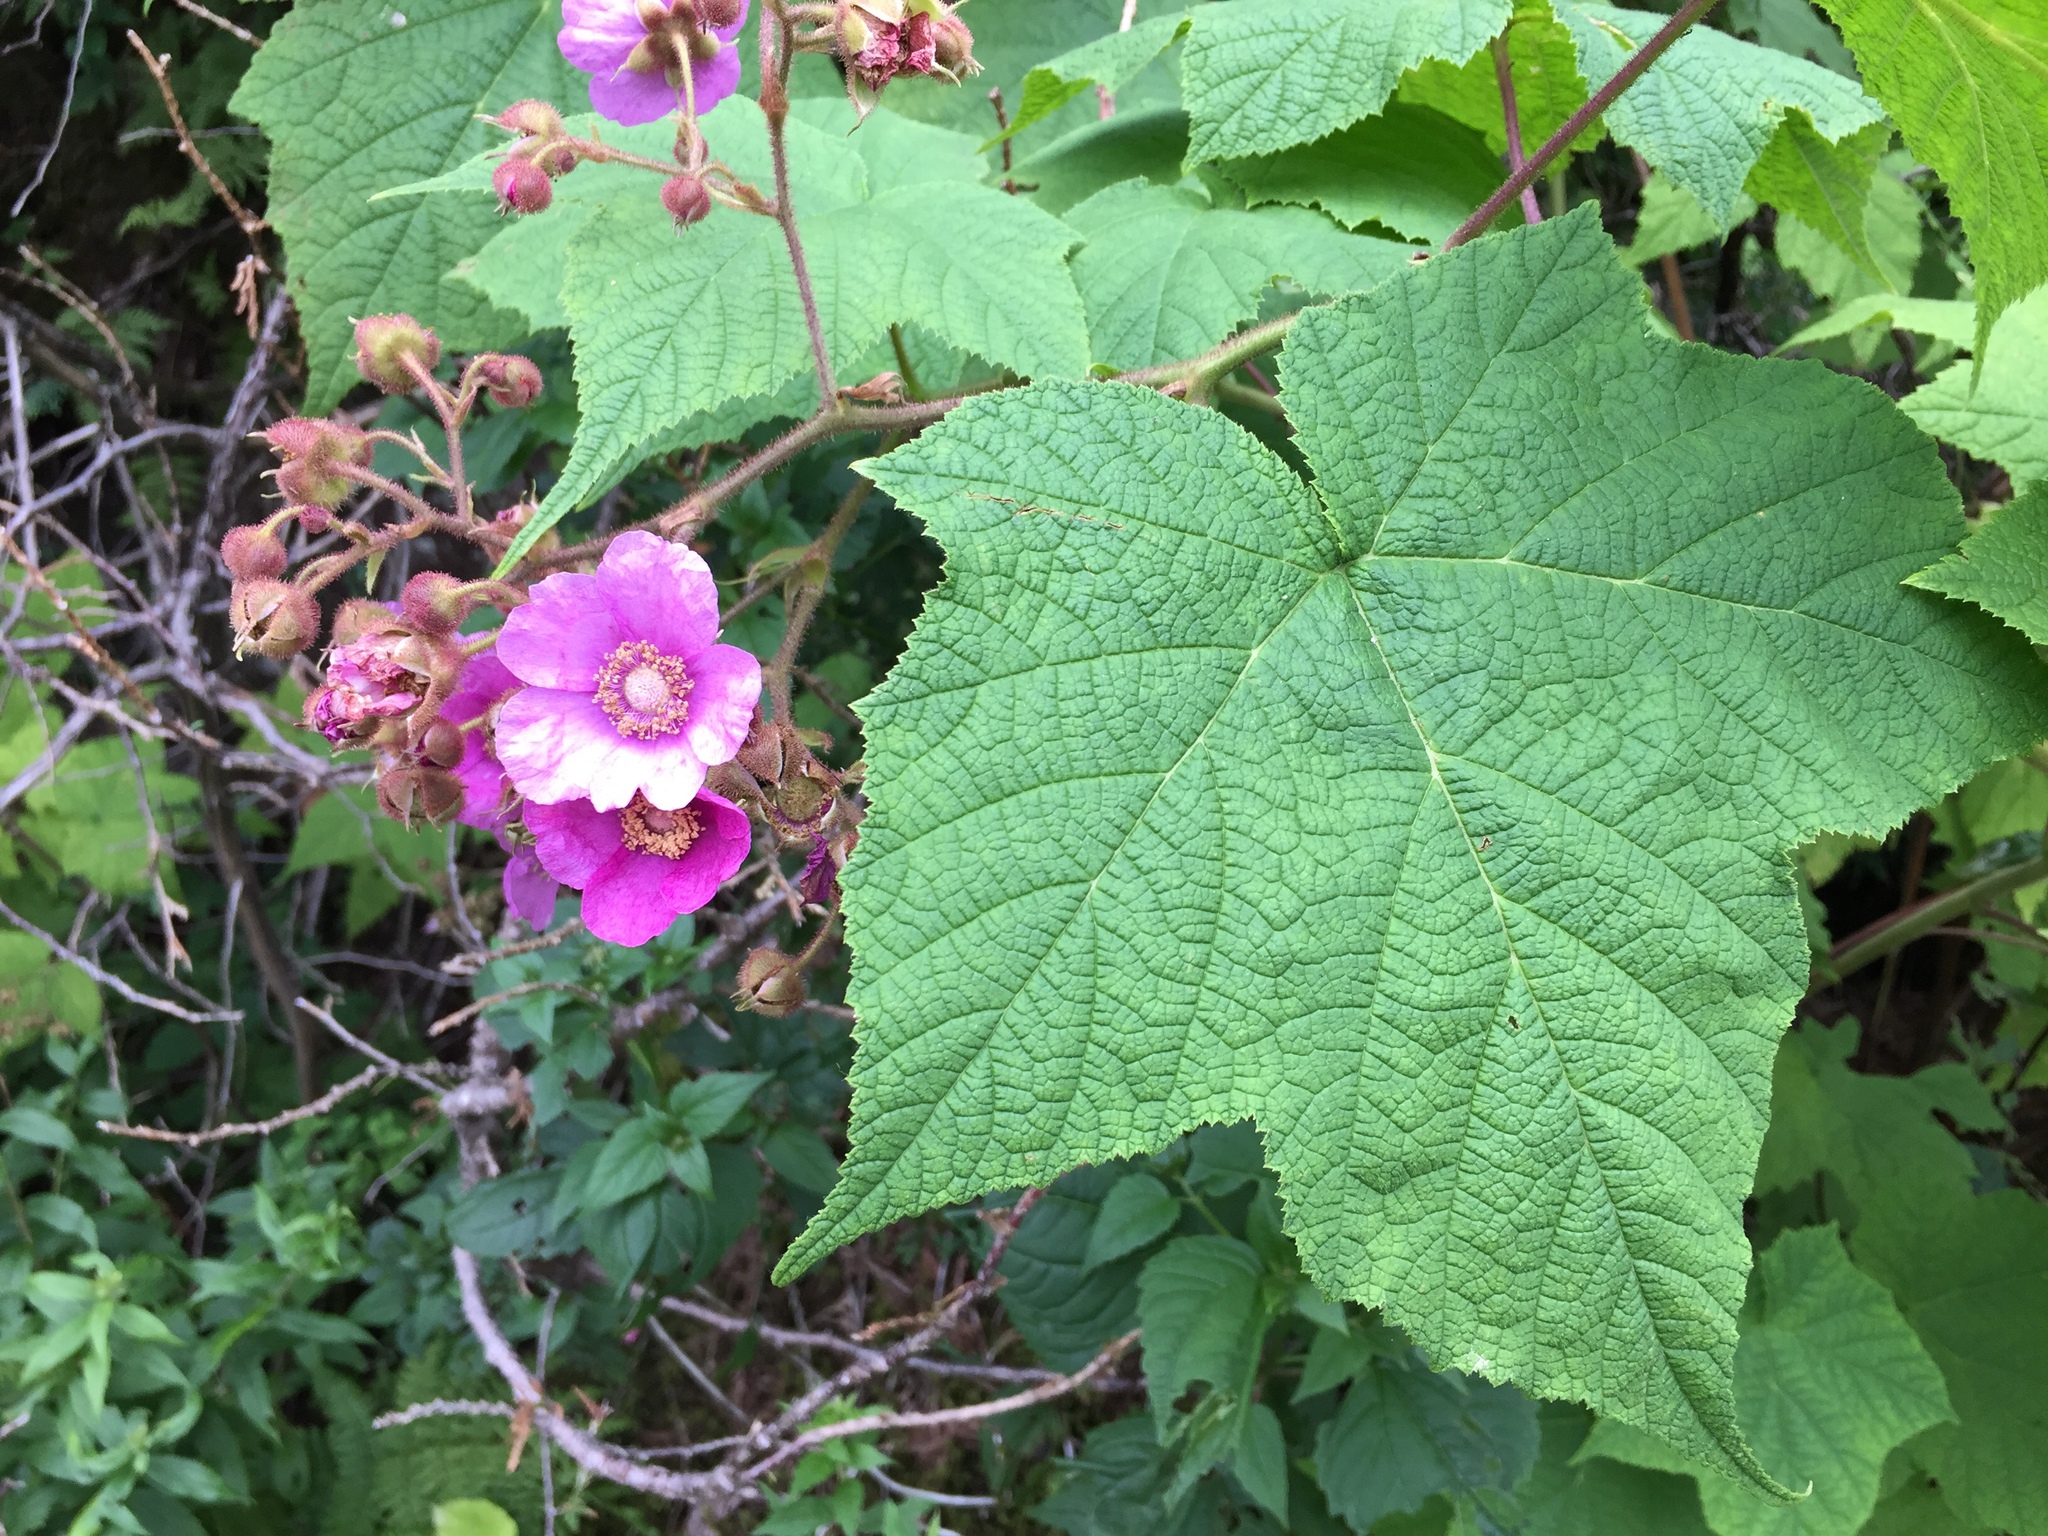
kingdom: Plantae
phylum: Tracheophyta
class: Magnoliopsida
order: Rosales
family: Rosaceae
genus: Rubus
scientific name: Rubus odoratus
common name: Purple-flowered raspberry
